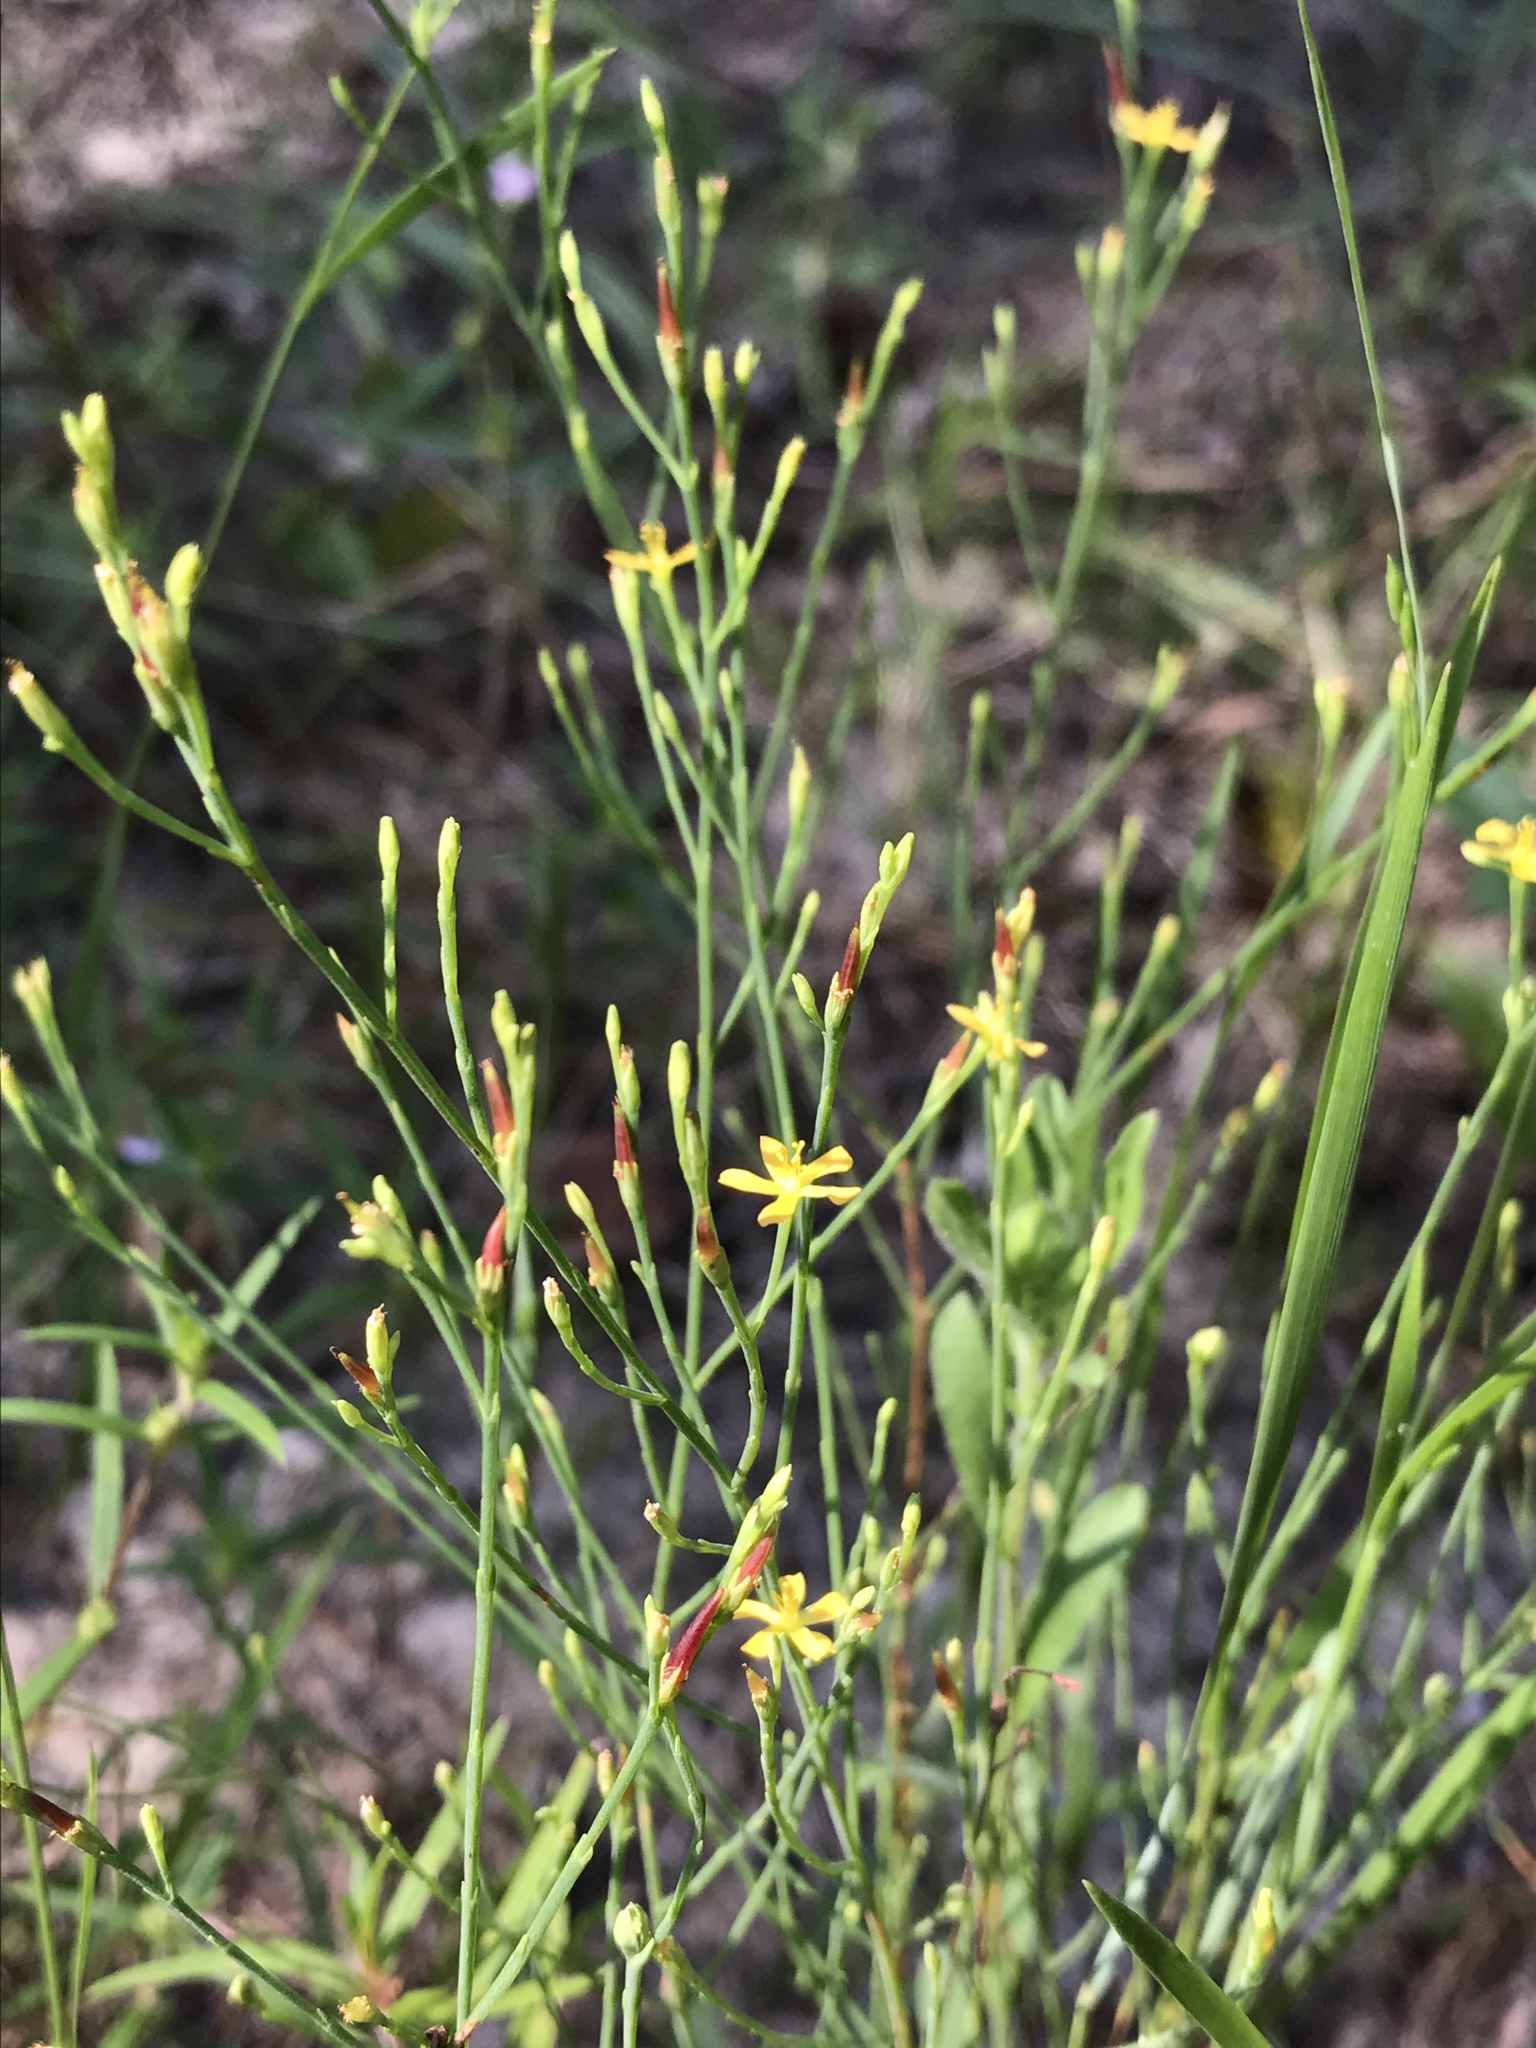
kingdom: Plantae
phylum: Tracheophyta
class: Magnoliopsida
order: Malpighiales
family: Hypericaceae
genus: Hypericum
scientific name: Hypericum gentianoides
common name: Gentian-leaved st. john's-wort
